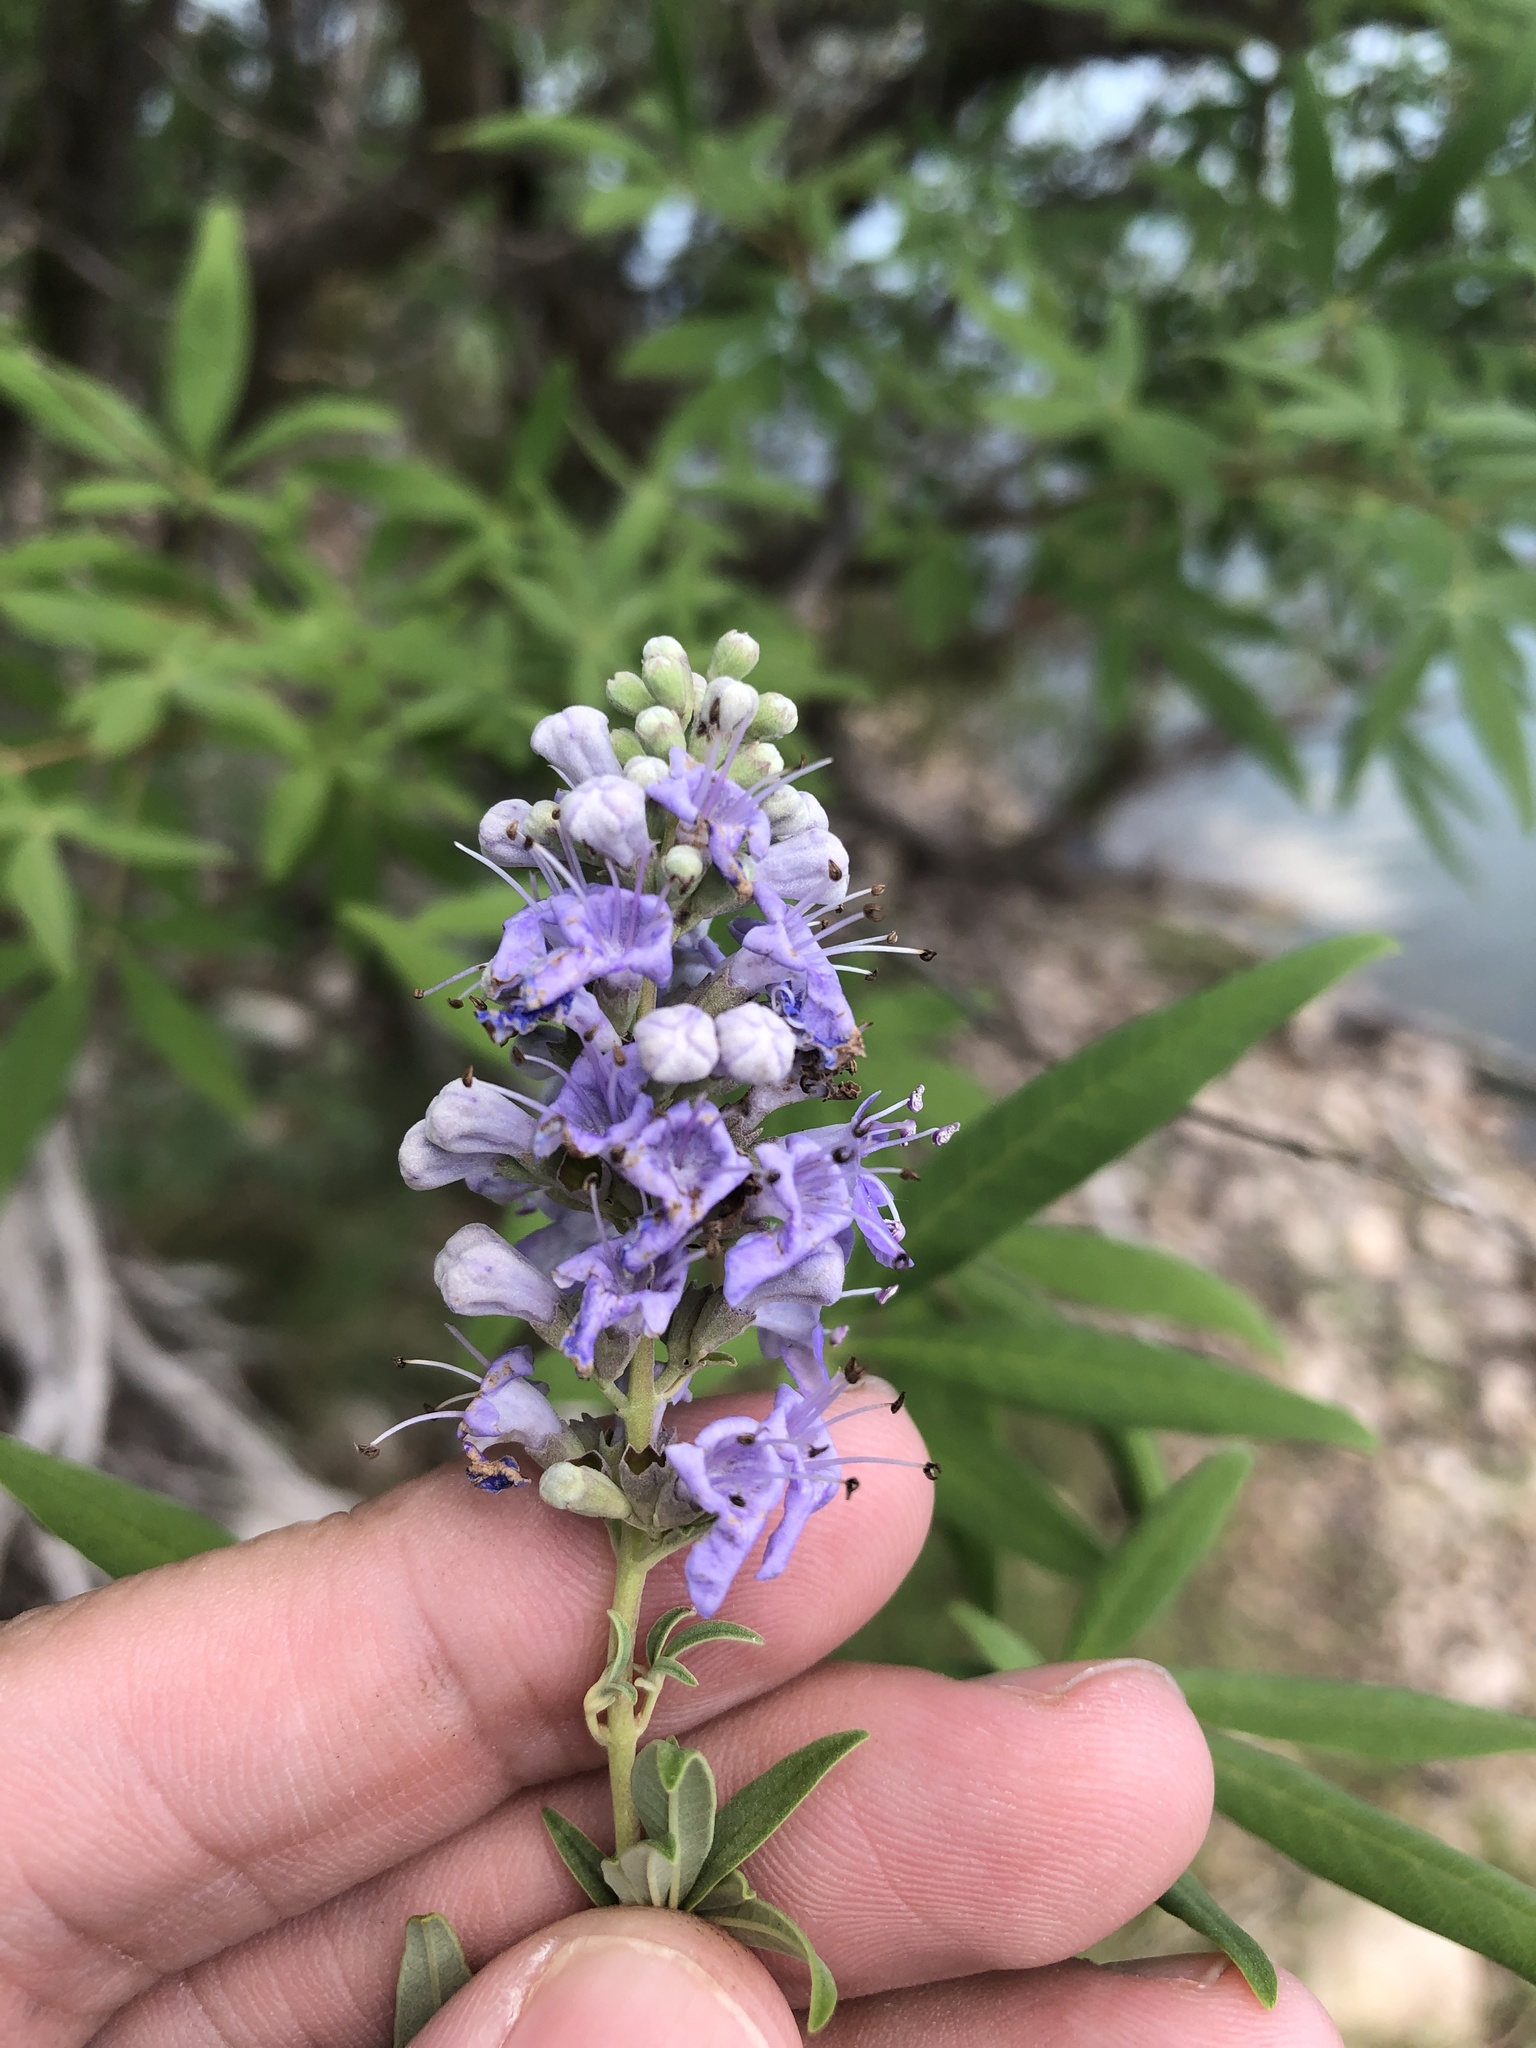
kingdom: Plantae
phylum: Tracheophyta
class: Magnoliopsida
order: Lamiales
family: Lamiaceae
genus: Vitex
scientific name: Vitex agnus-castus
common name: Chasteberry
